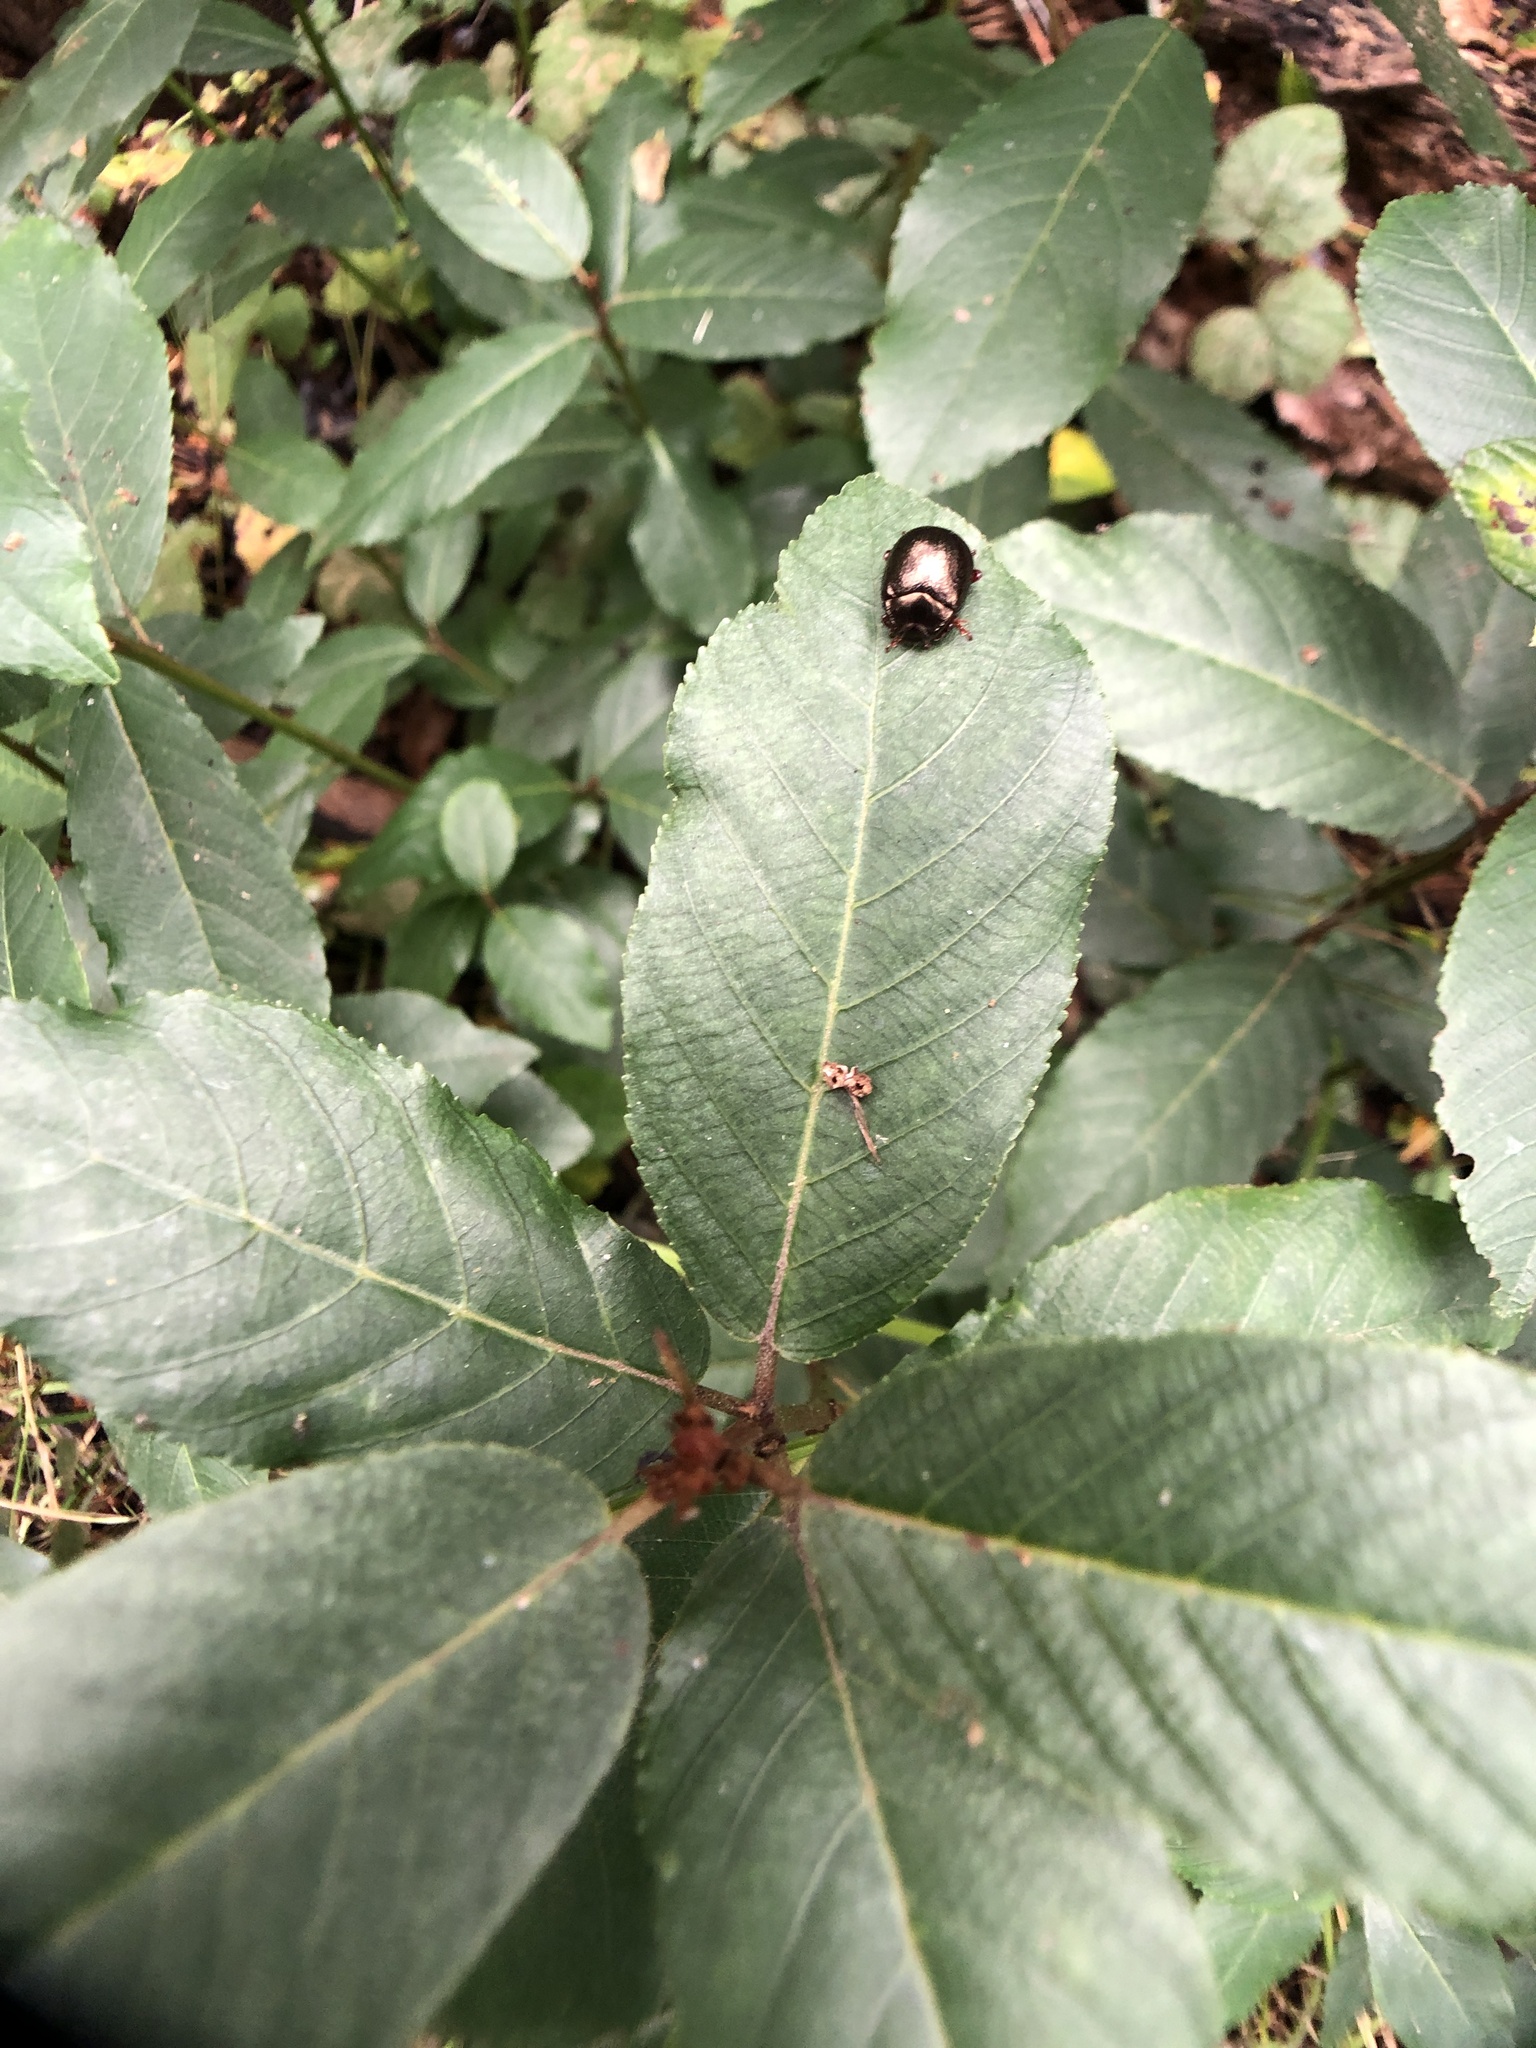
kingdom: Animalia
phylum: Arthropoda
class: Insecta
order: Coleoptera
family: Chrysomelidae
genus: Chrysolina
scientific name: Chrysolina bankii
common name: Leaf beetle
